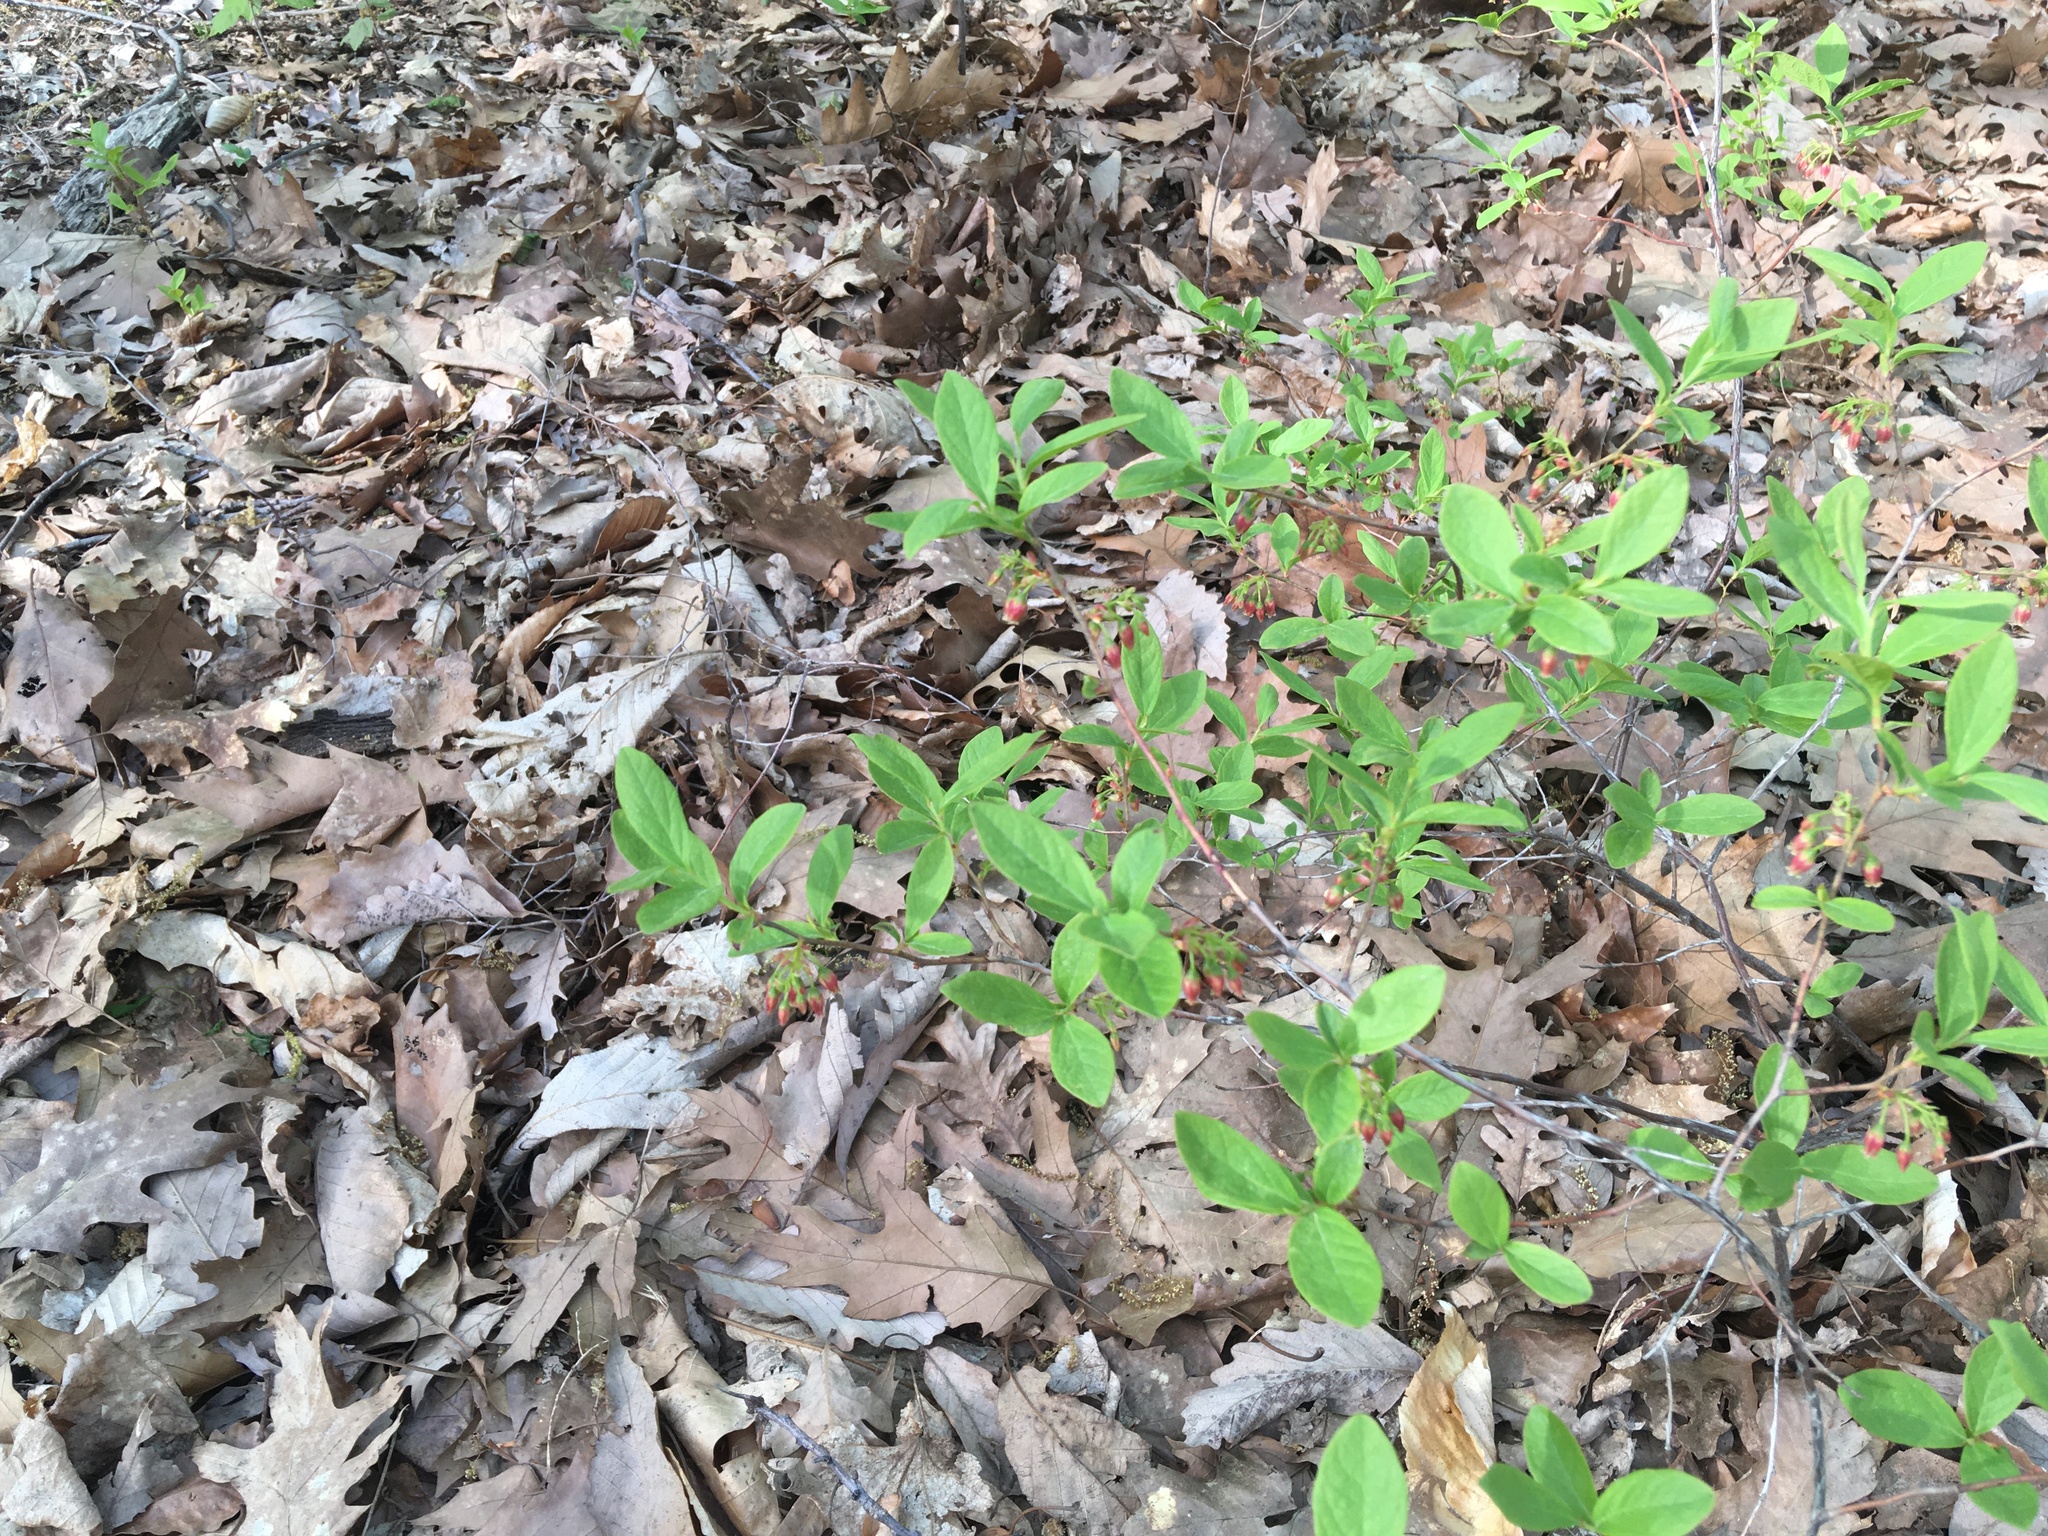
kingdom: Plantae
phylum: Tracheophyta
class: Magnoliopsida
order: Ericales
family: Ericaceae
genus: Gaylussacia
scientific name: Gaylussacia baccata
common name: Black huckleberry
